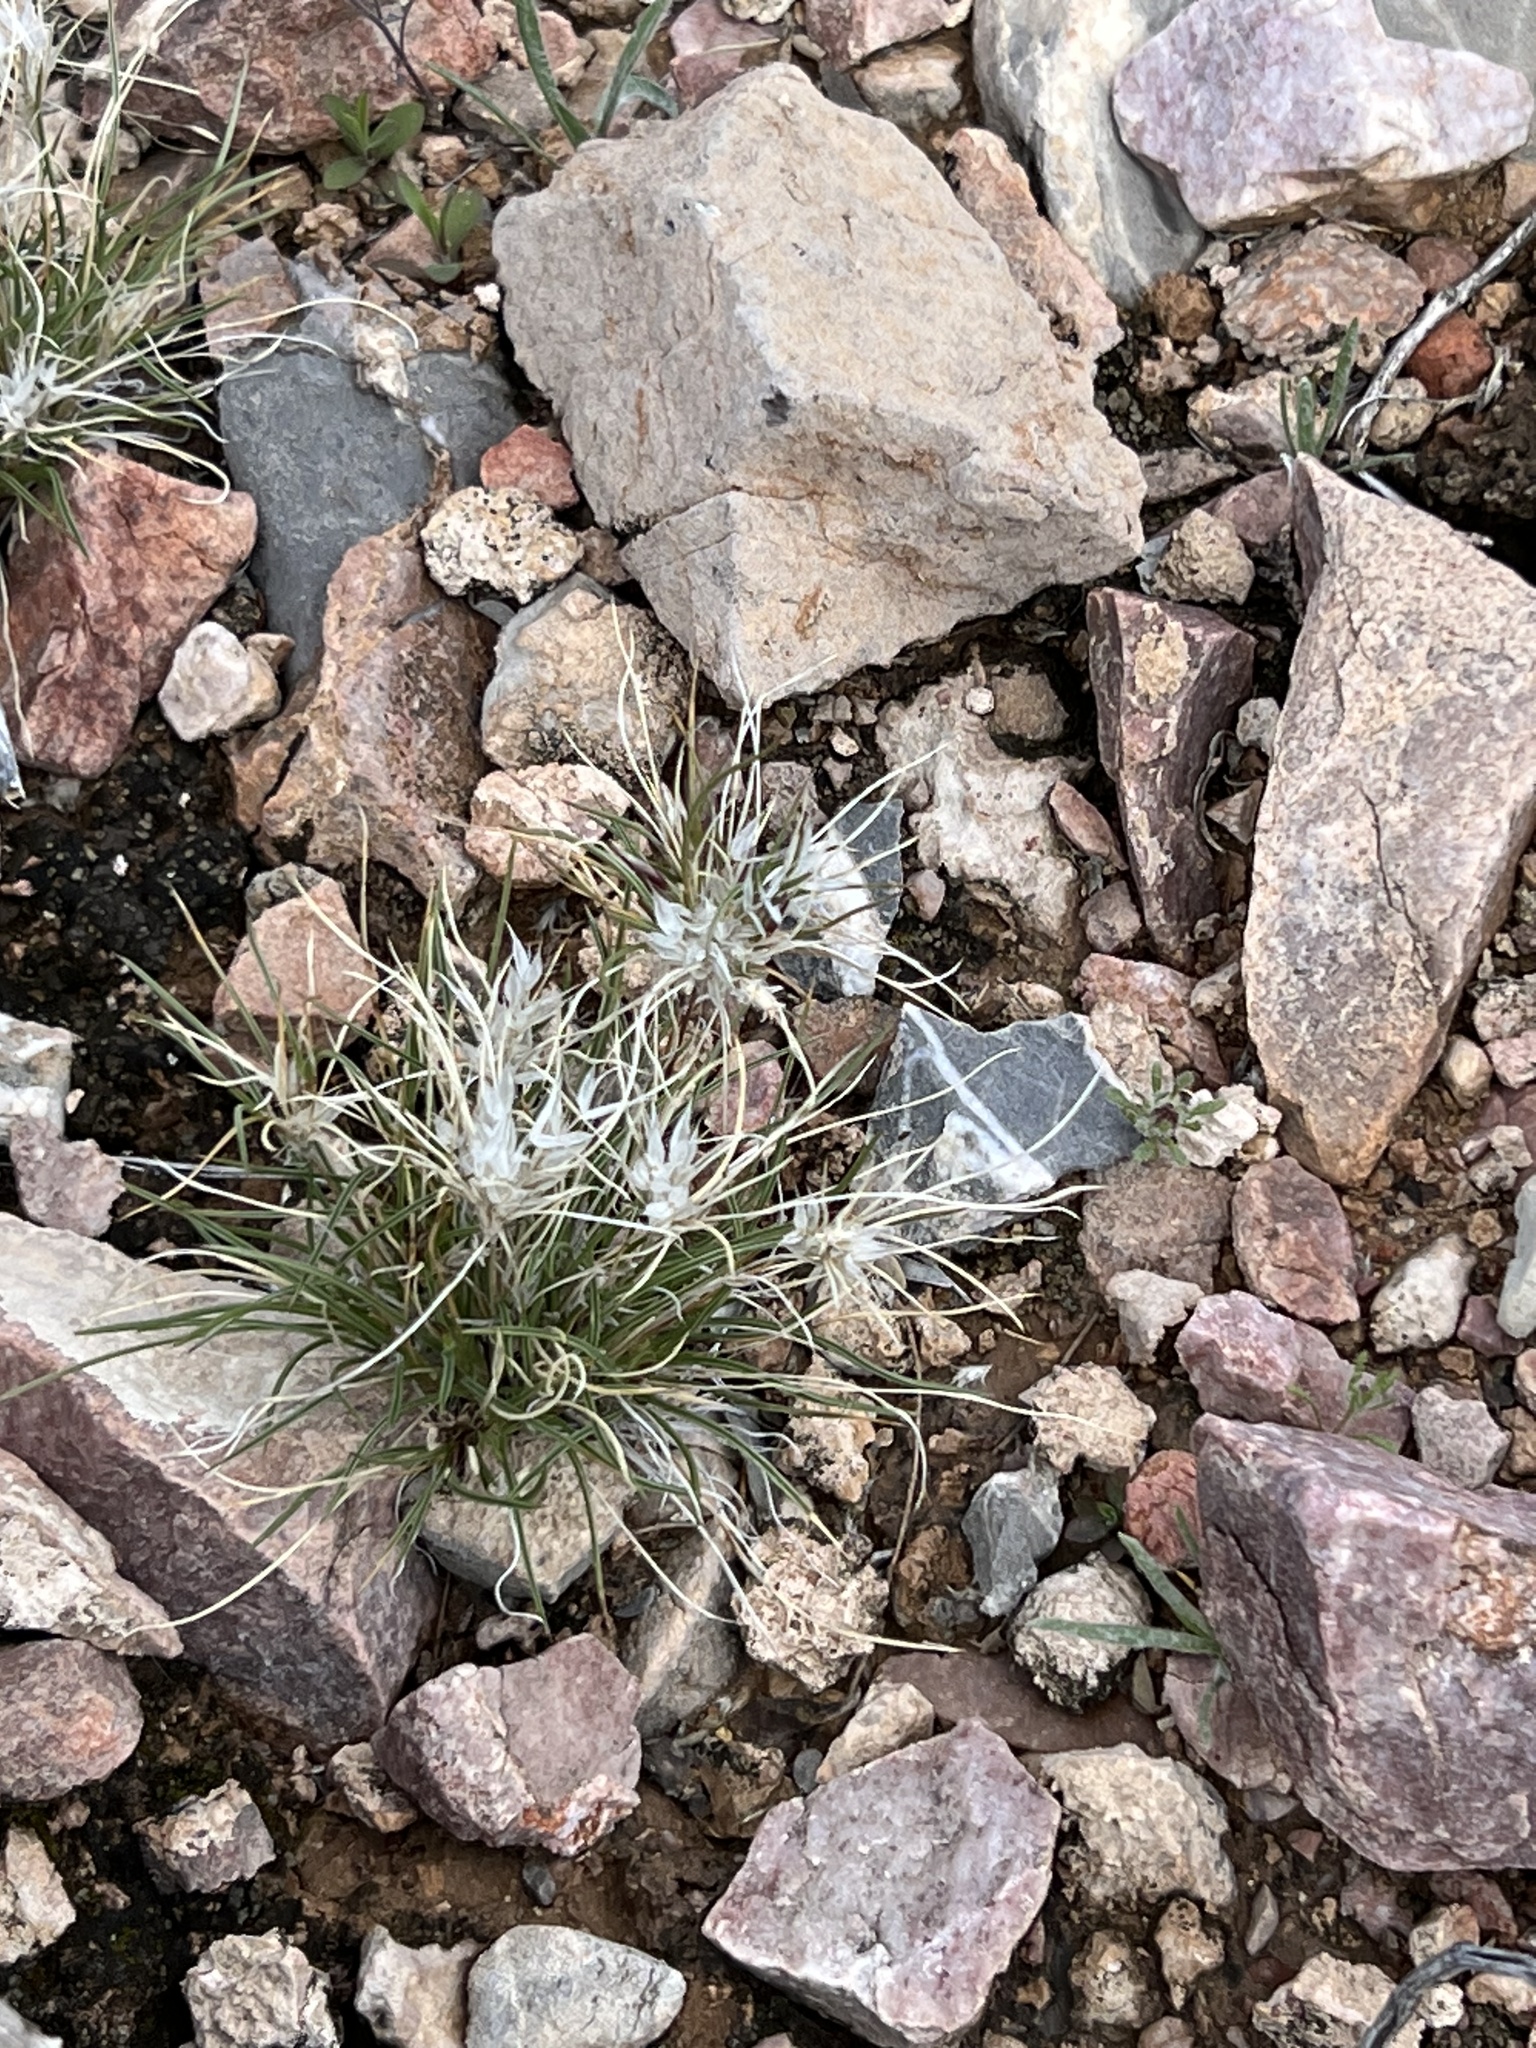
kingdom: Plantae
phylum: Tracheophyta
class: Liliopsida
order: Poales
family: Poaceae
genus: Dasyochloa
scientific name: Dasyochloa pulchella
